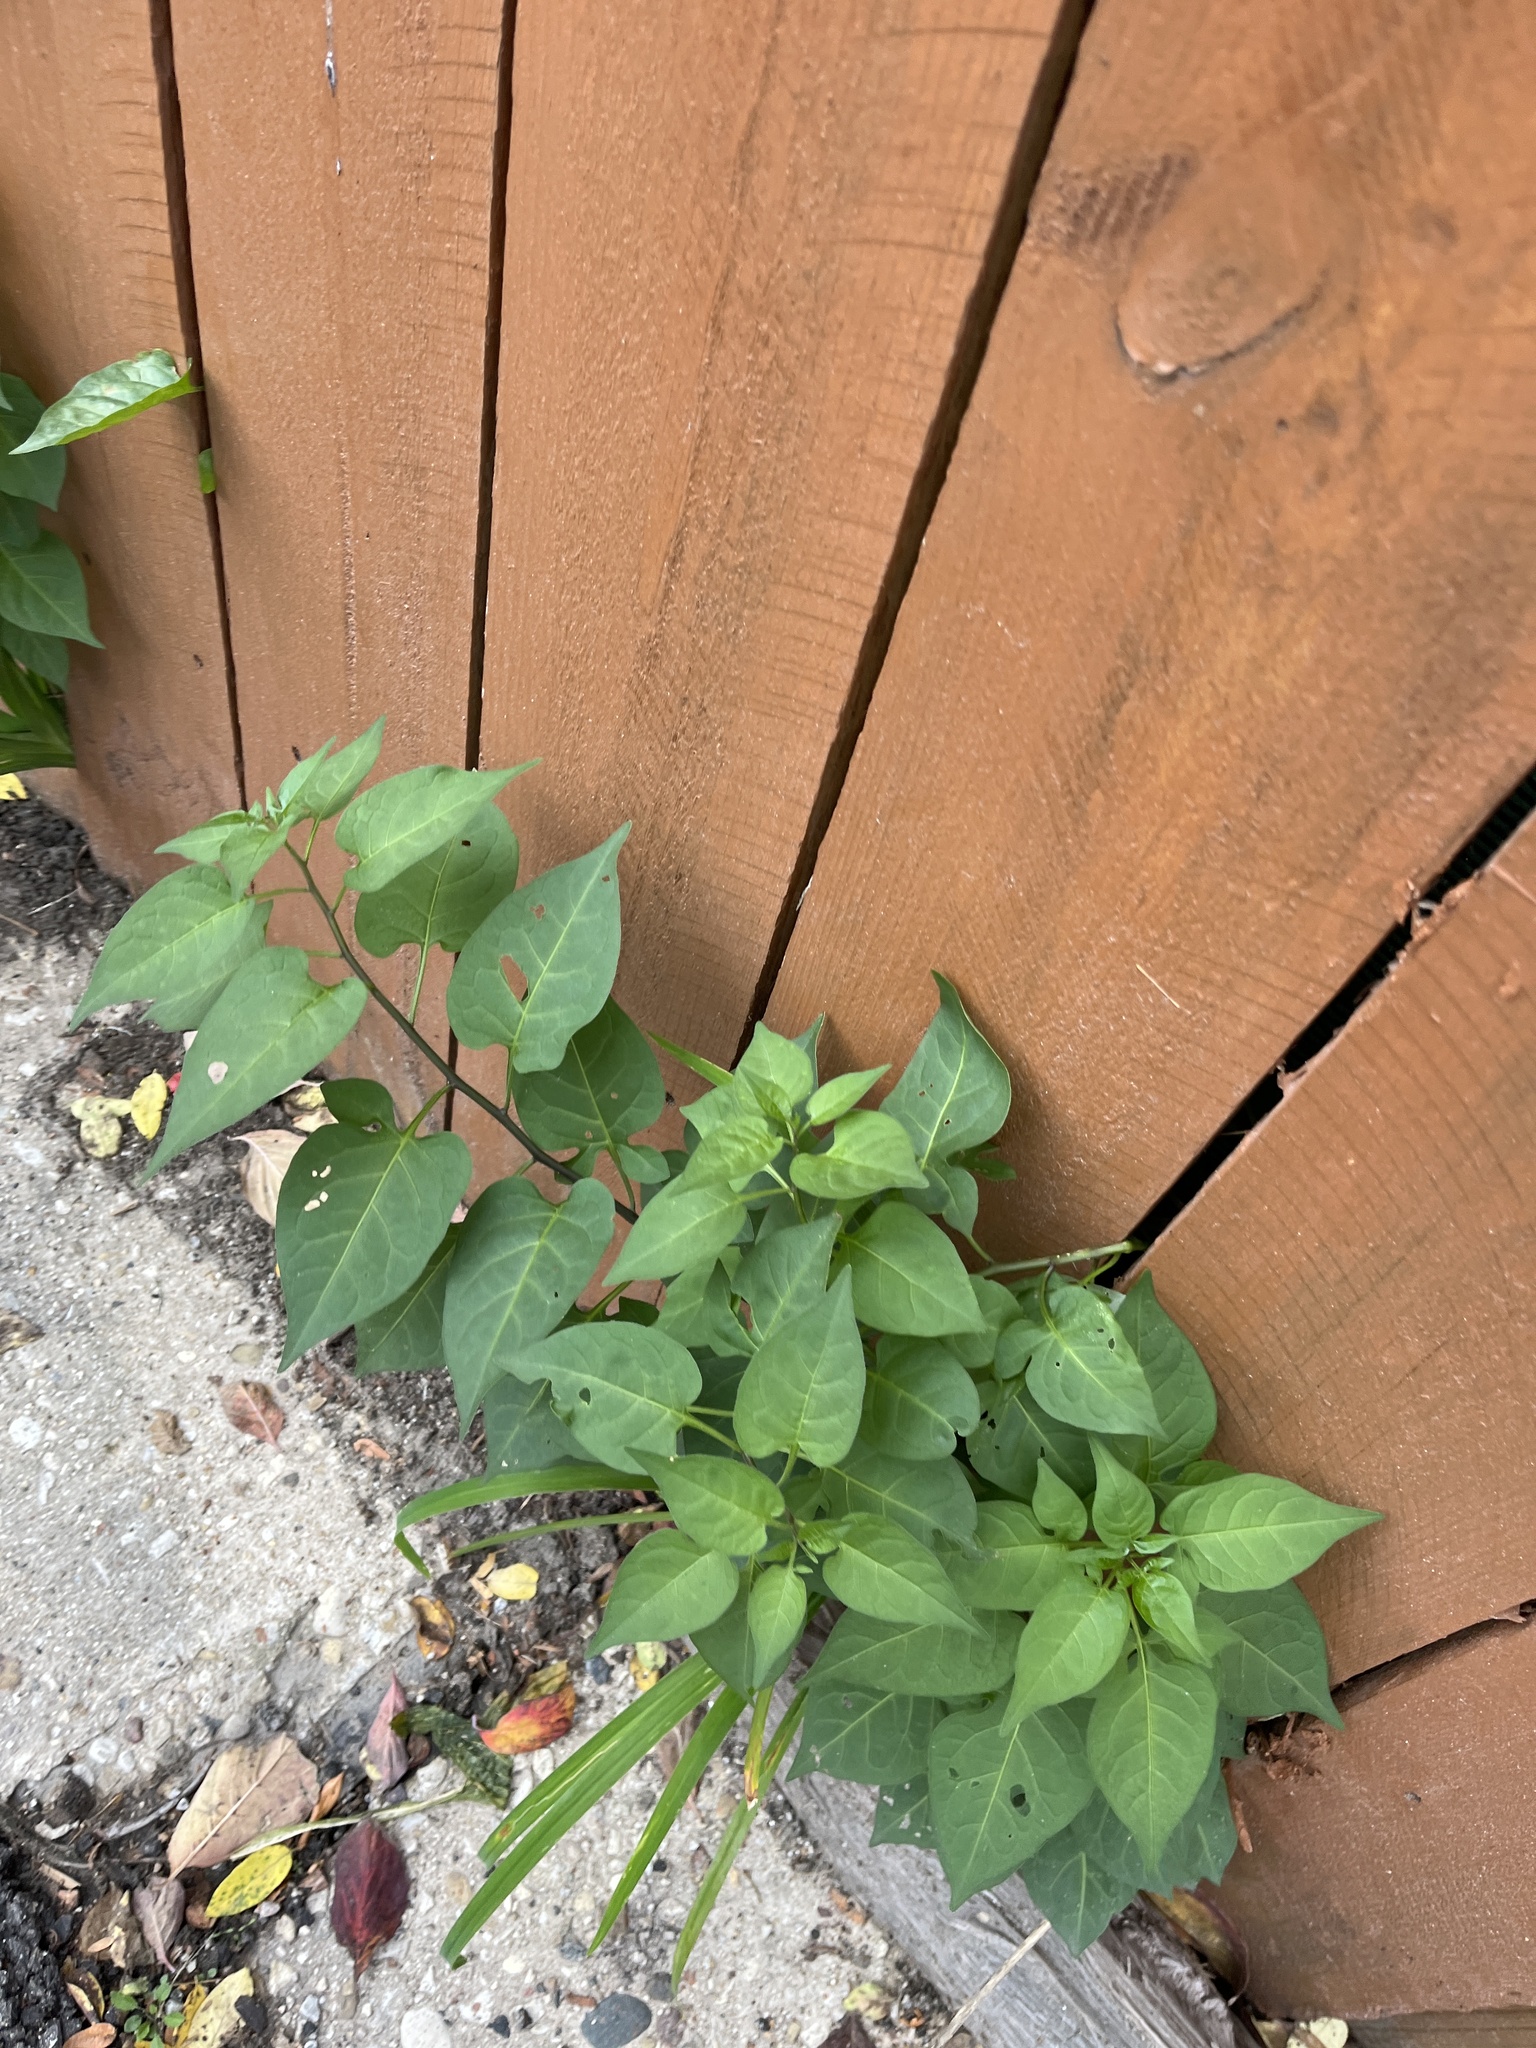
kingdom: Plantae
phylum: Tracheophyta
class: Magnoliopsida
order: Solanales
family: Solanaceae
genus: Solanum
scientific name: Solanum dulcamara
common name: Climbing nightshade
